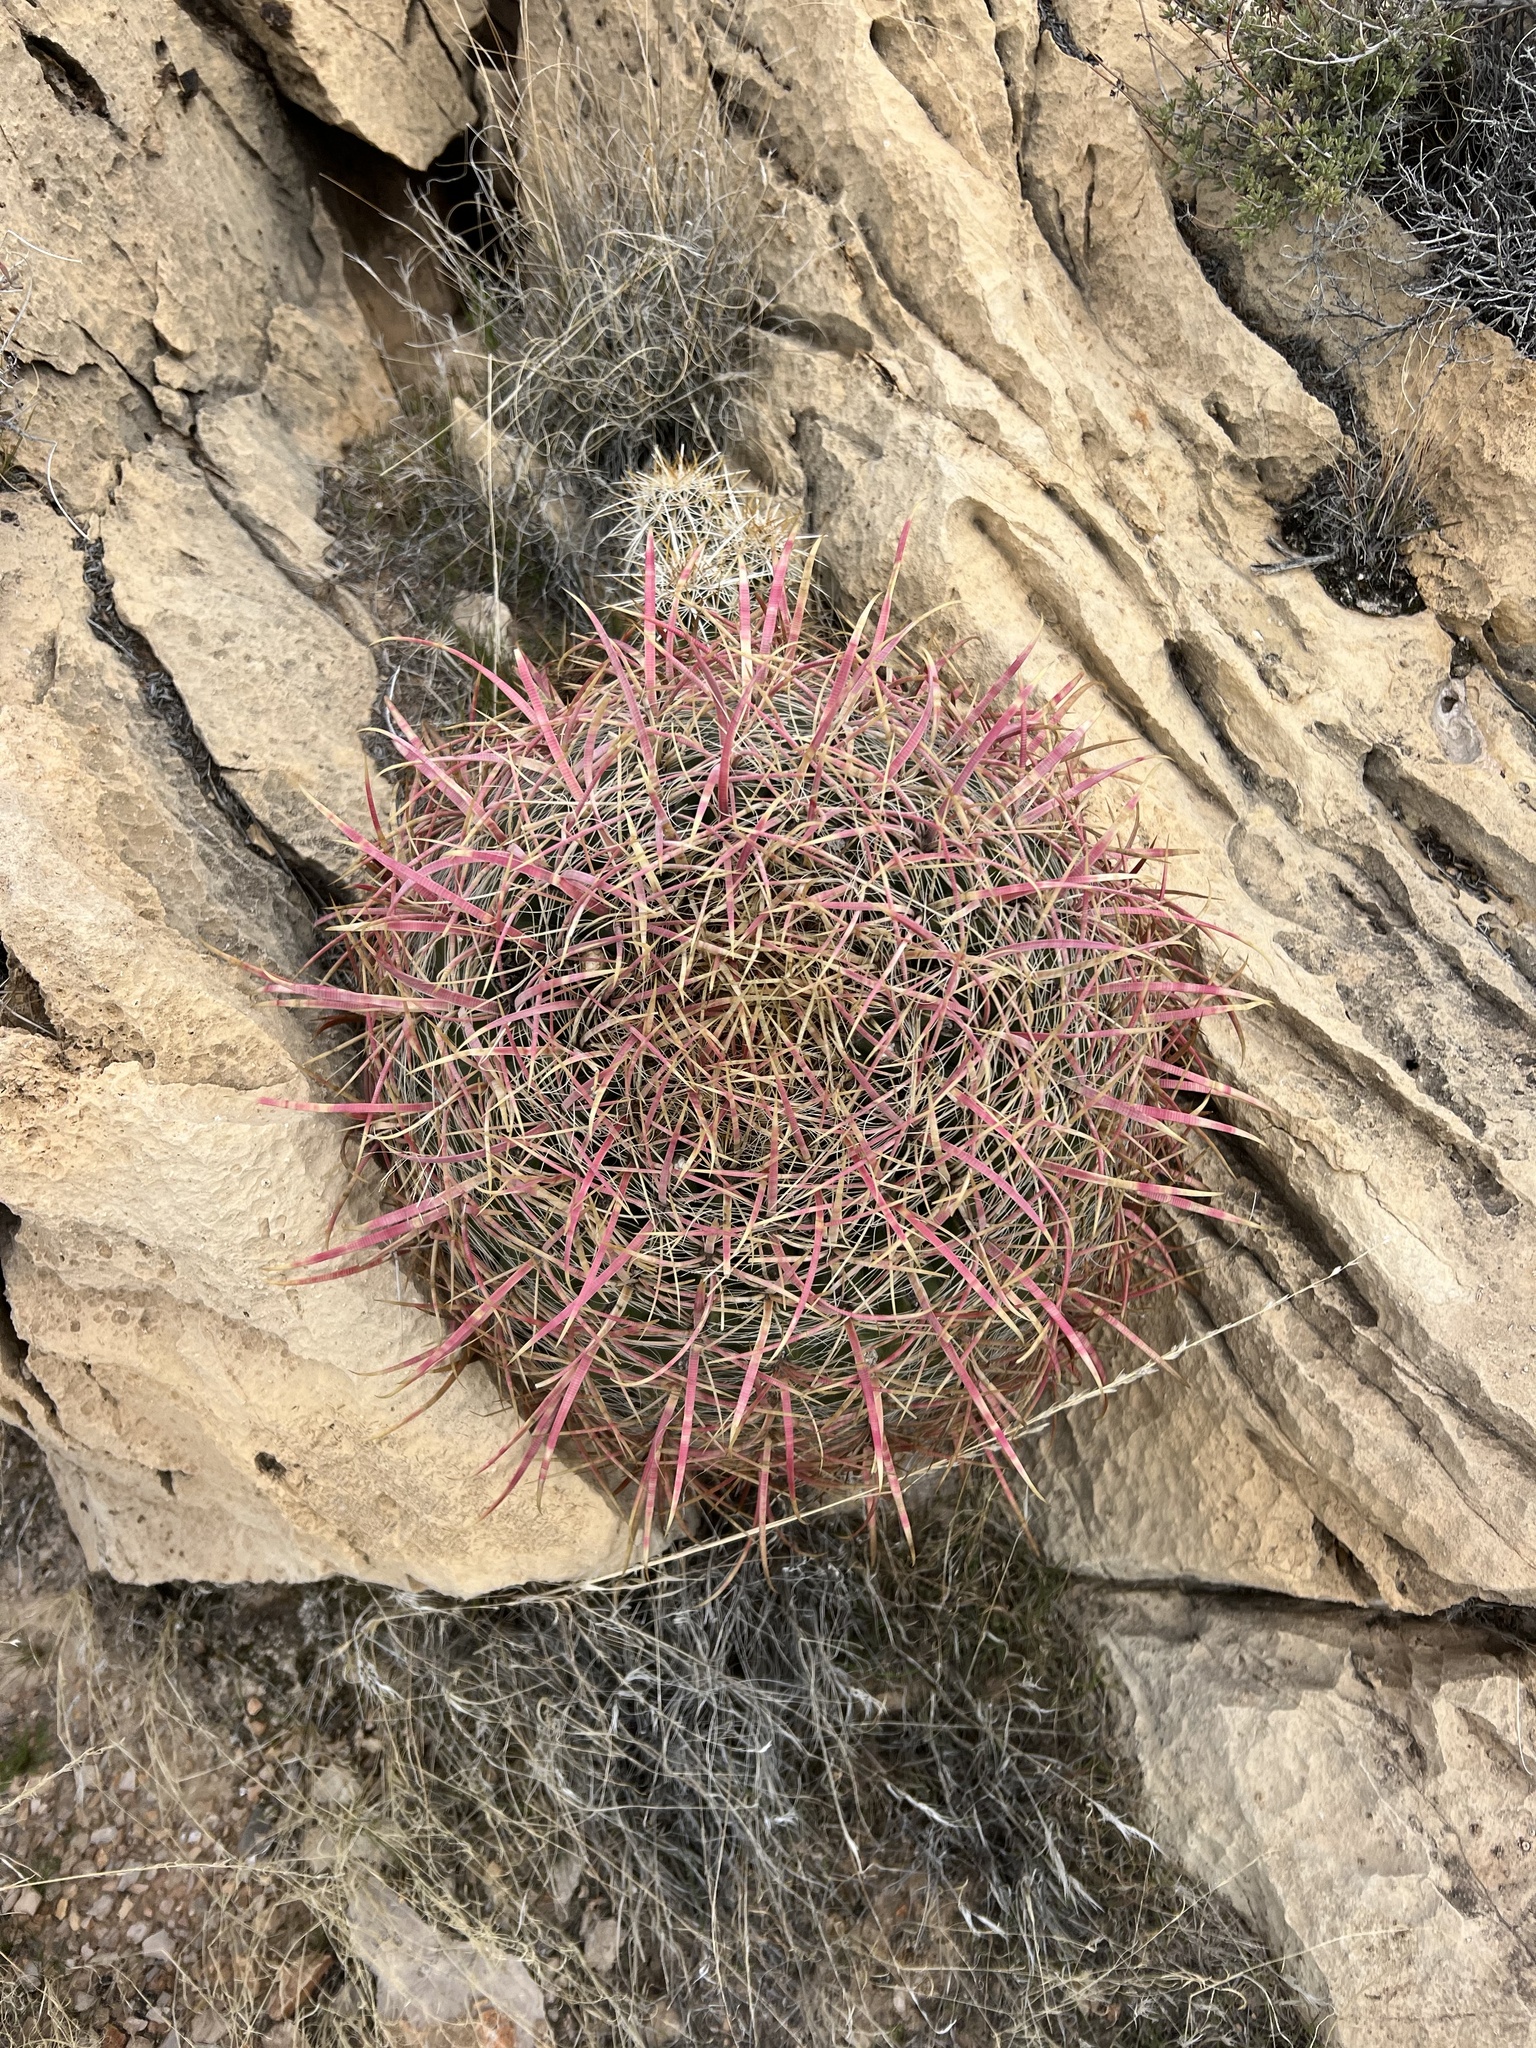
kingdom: Plantae
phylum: Tracheophyta
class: Magnoliopsida
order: Caryophyllales
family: Cactaceae
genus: Ferocactus
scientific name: Ferocactus cylindraceus
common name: California barrel cactus
